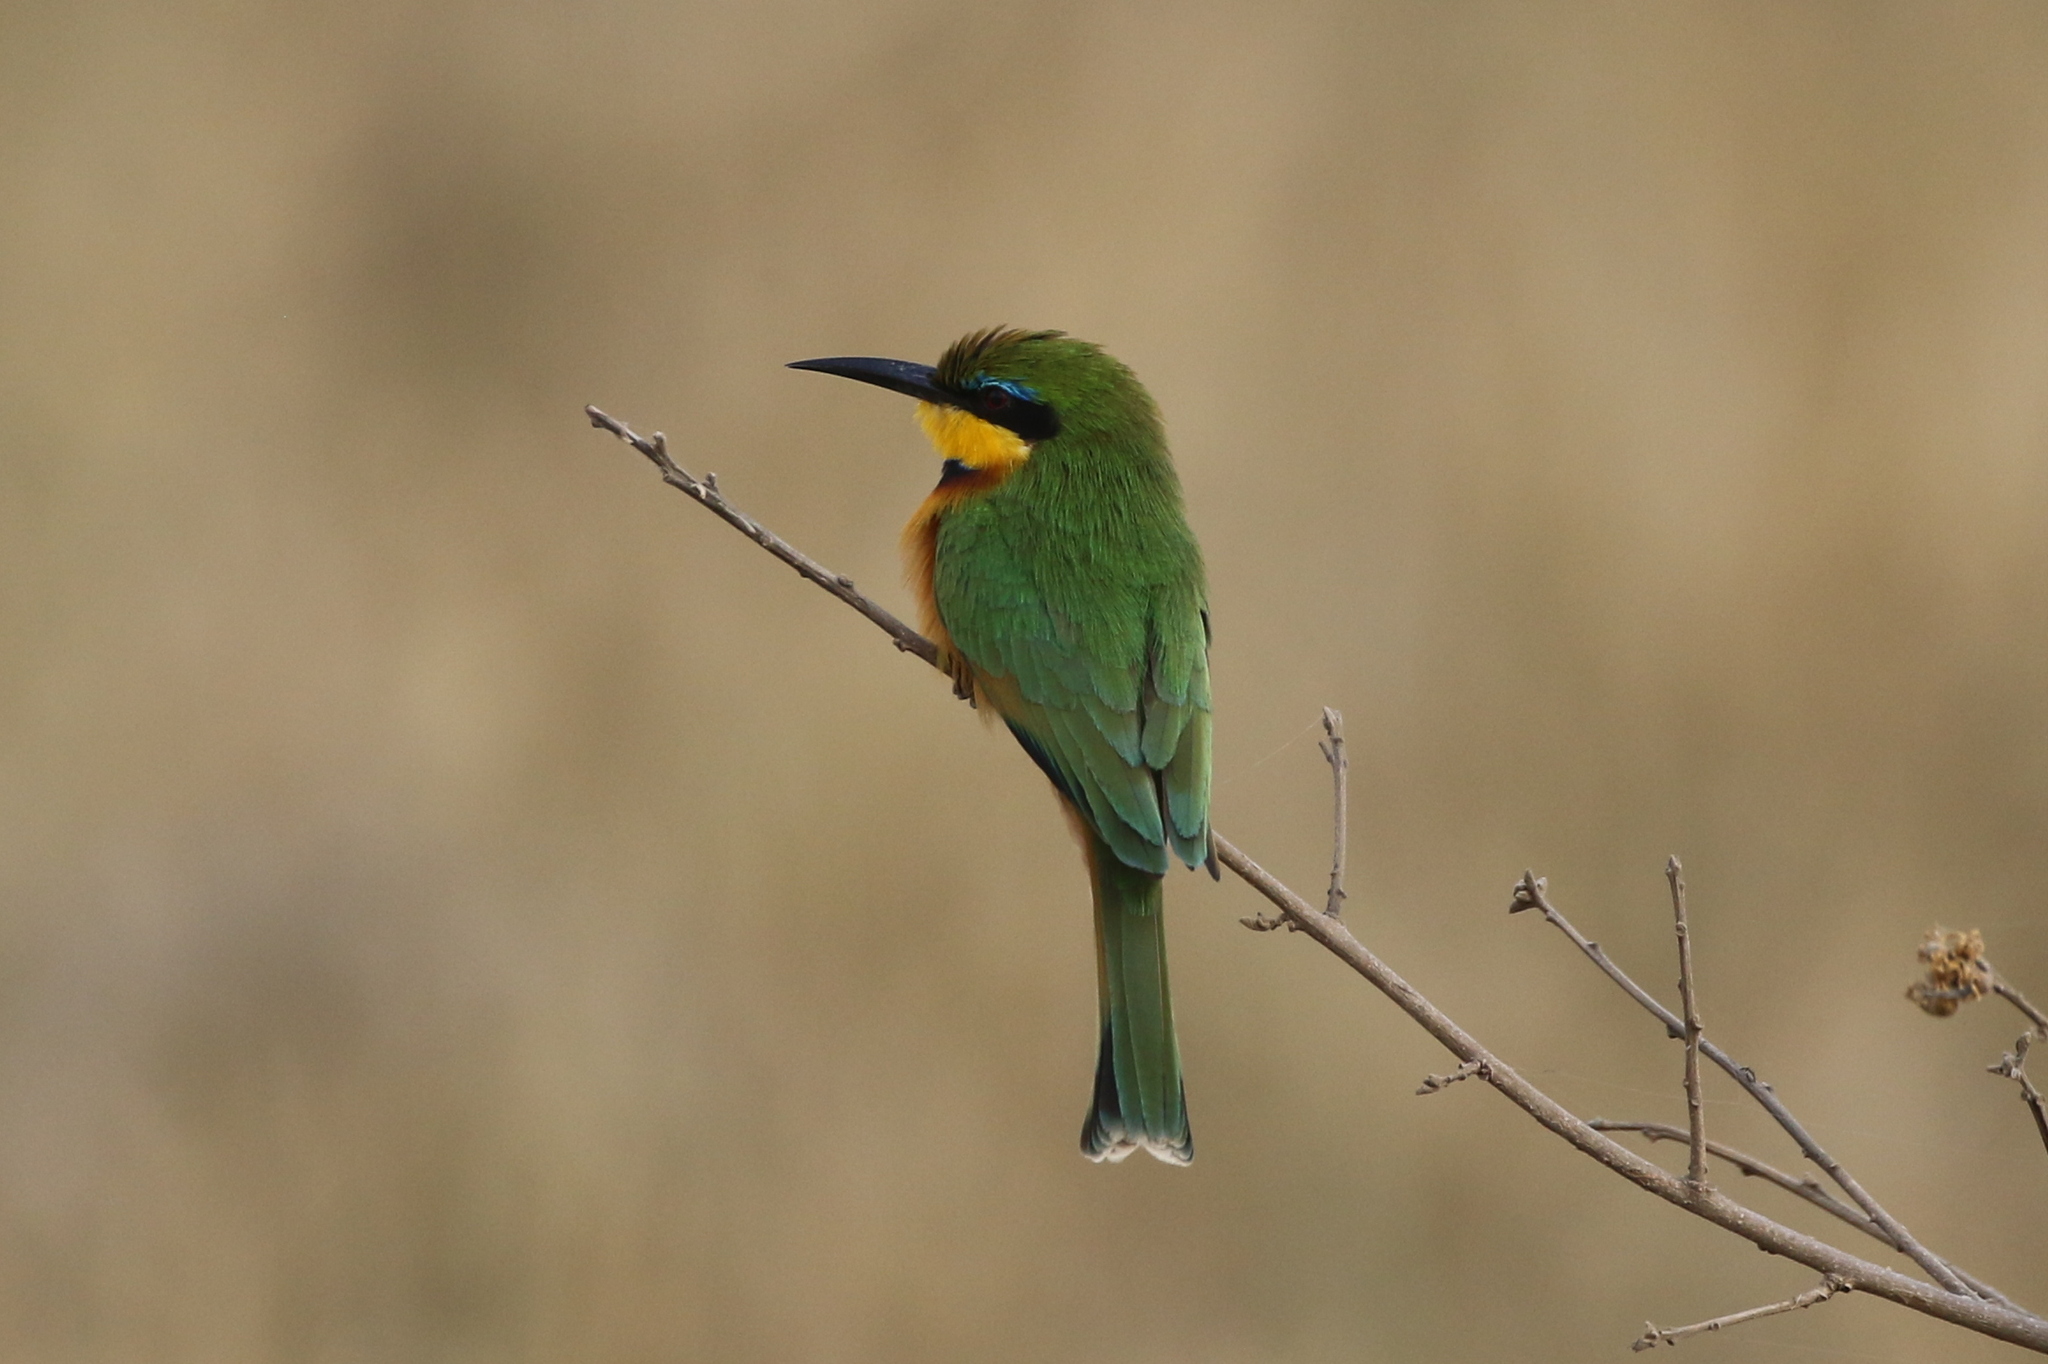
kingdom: Animalia
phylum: Chordata
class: Aves
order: Coraciiformes
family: Meropidae
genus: Merops
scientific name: Merops pusillus
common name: Little bee-eater
